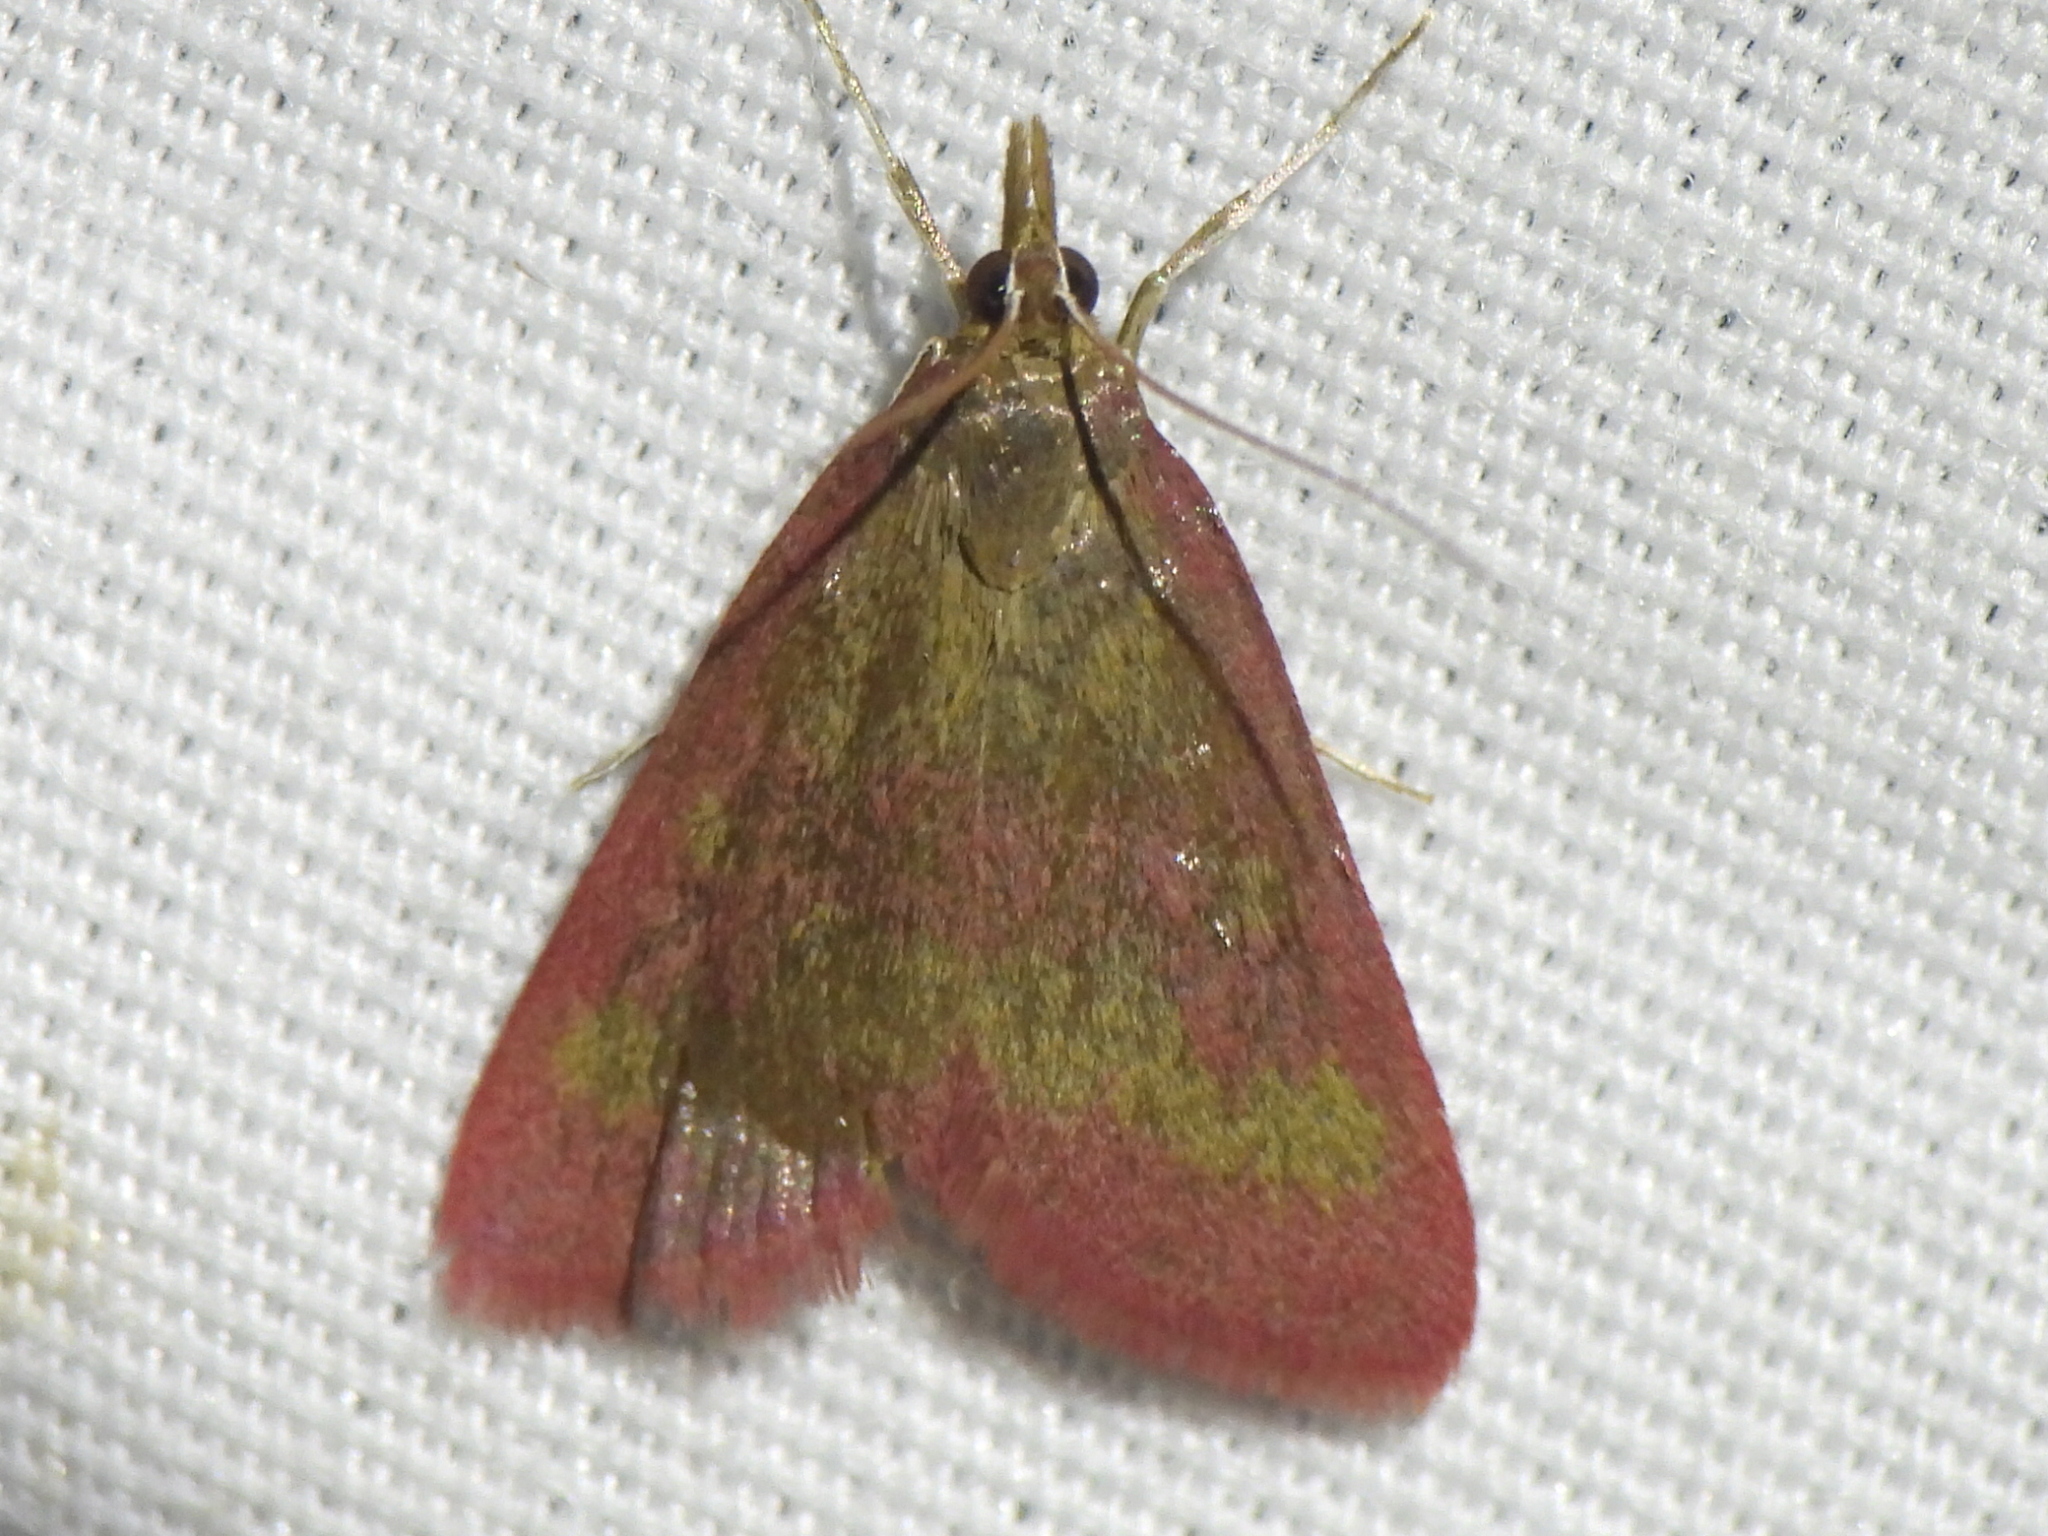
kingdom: Animalia
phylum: Arthropoda
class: Insecta
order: Lepidoptera
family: Crambidae
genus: Pyrausta
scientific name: Pyrausta laticlavia
